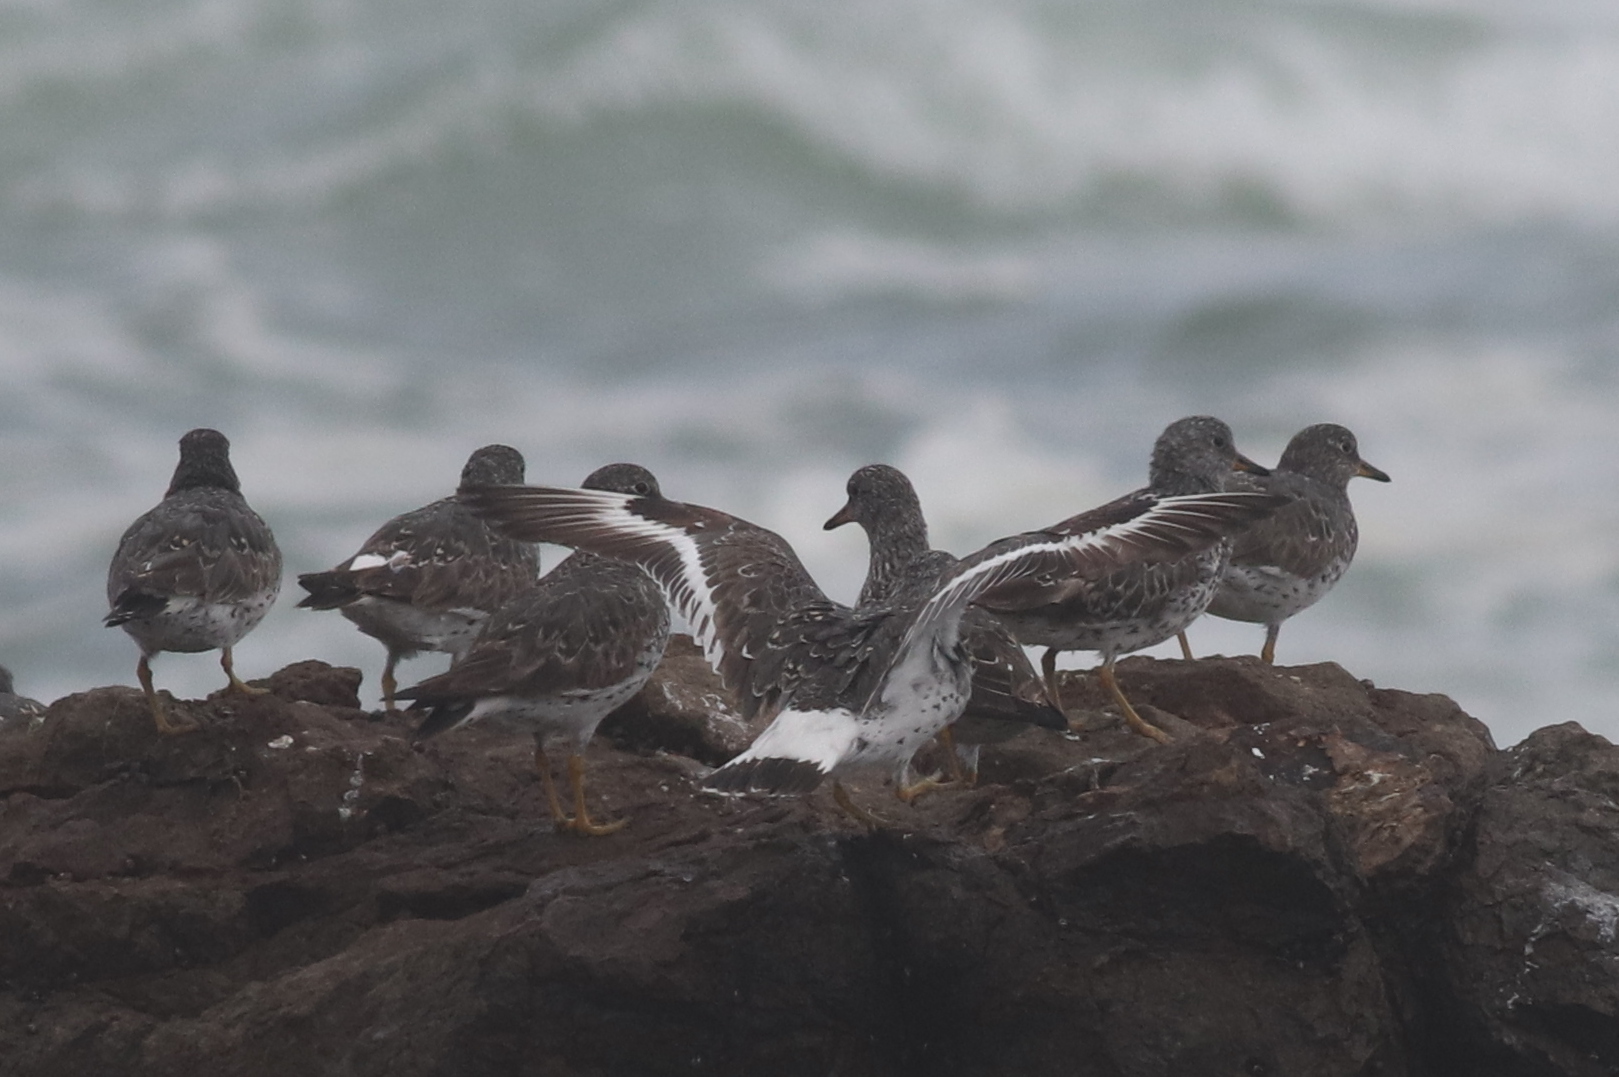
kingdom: Animalia
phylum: Chordata
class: Aves
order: Charadriiformes
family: Scolopacidae
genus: Calidris
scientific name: Calidris virgata
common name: Surfbird
